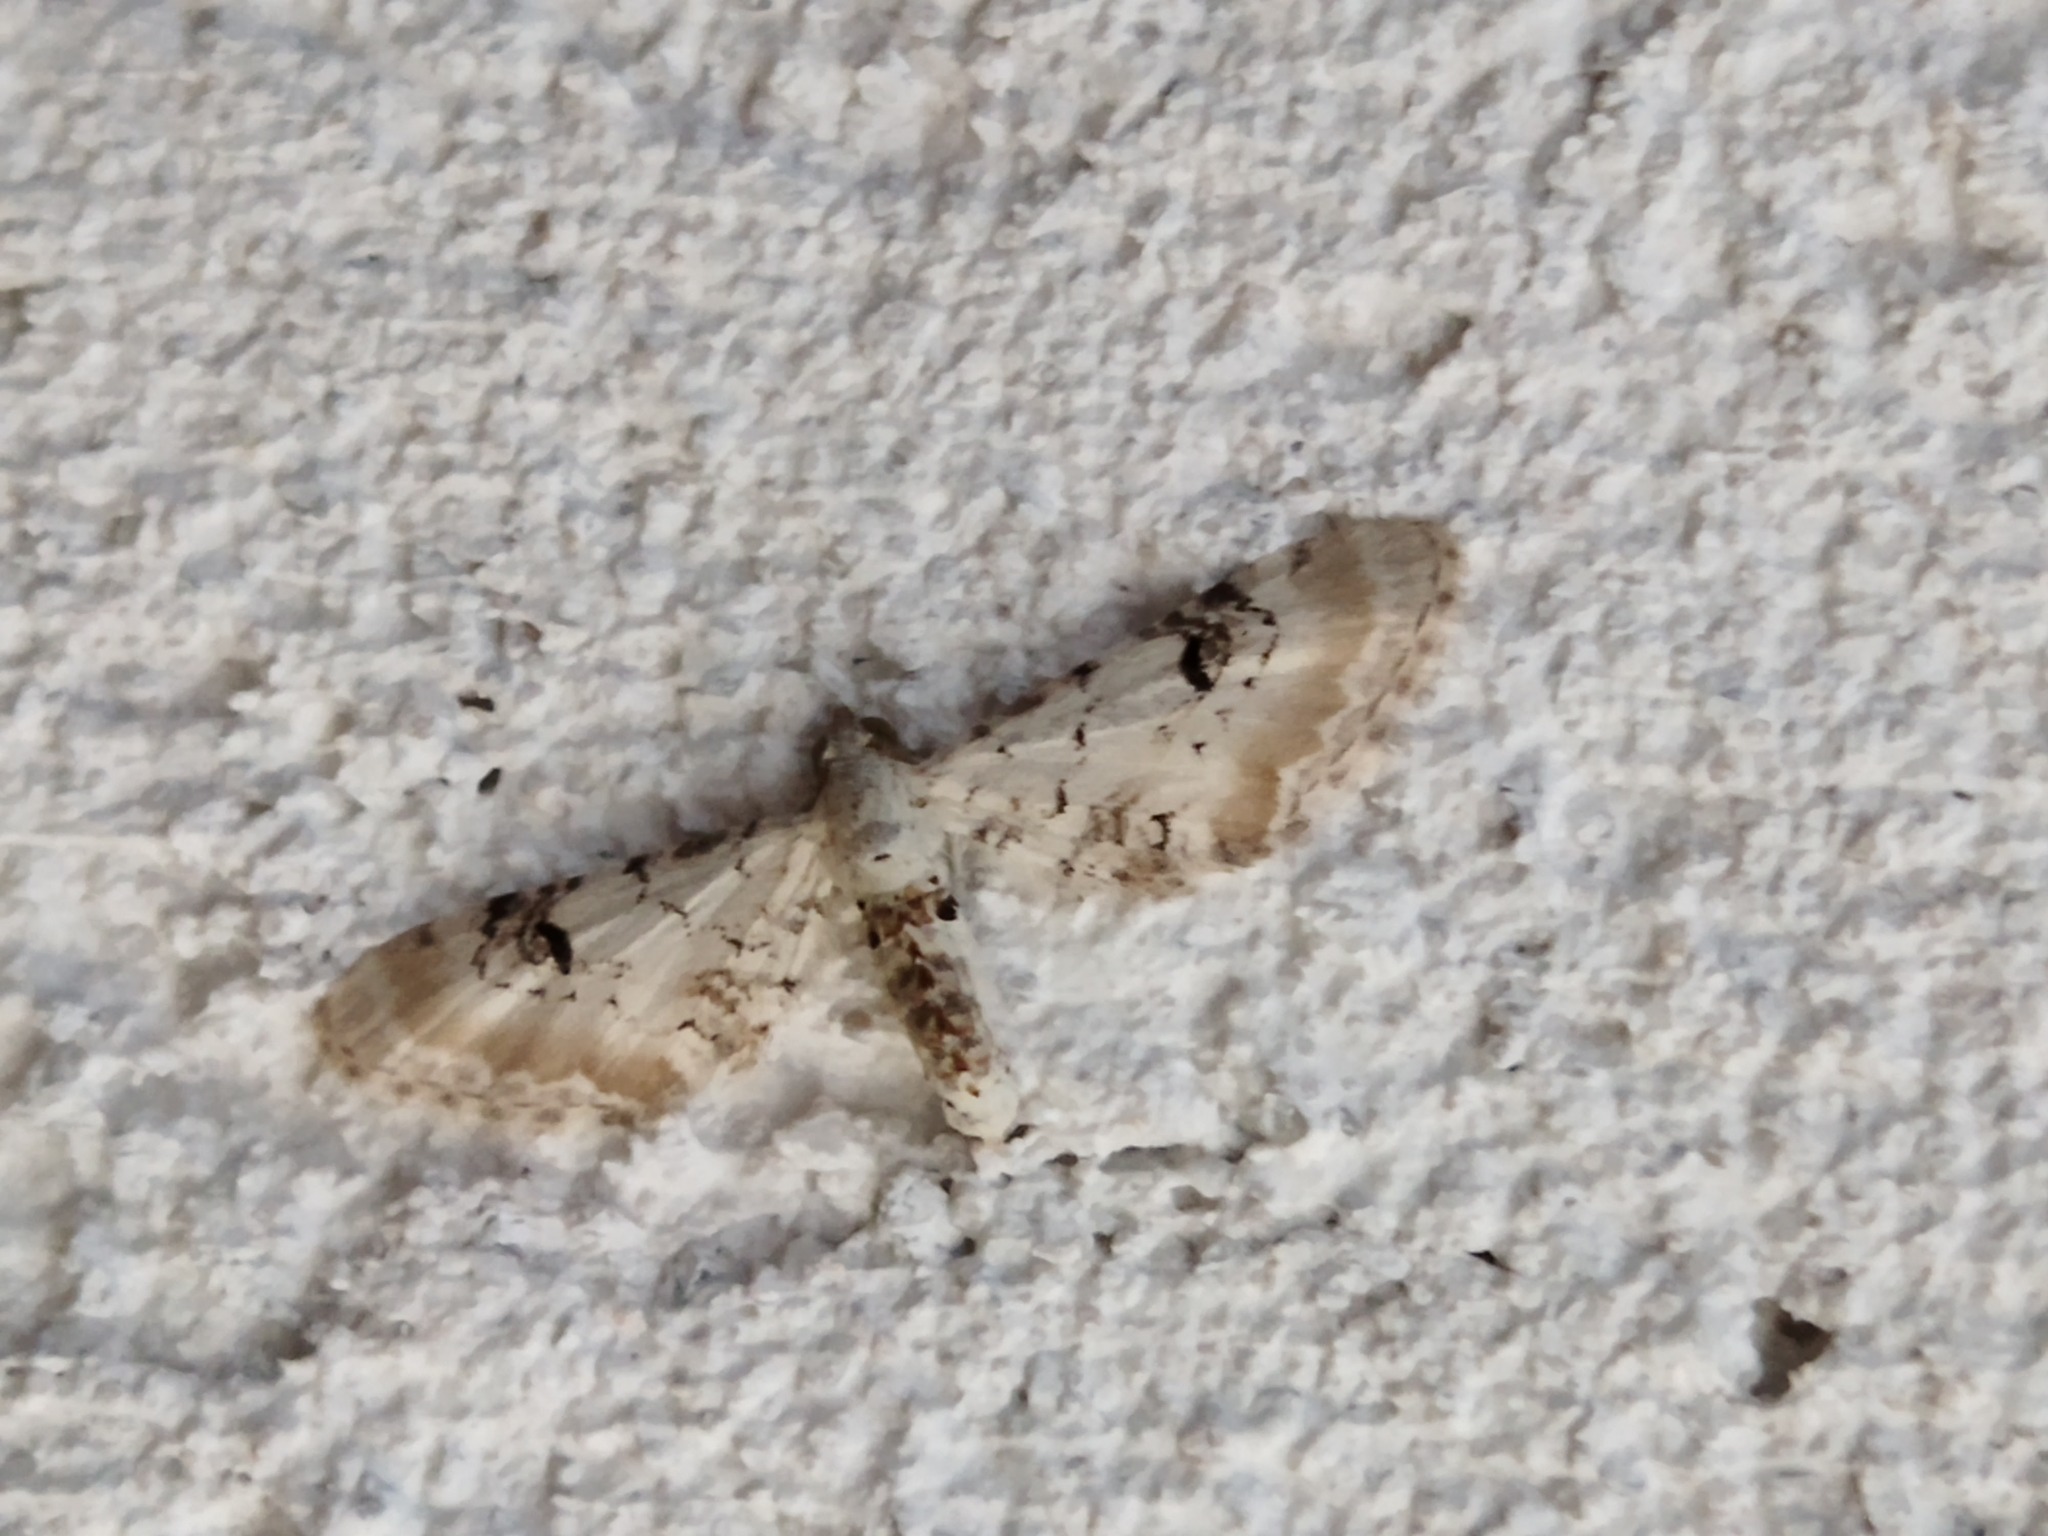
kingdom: Animalia
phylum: Arthropoda
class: Insecta
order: Lepidoptera
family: Geometridae
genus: Eupithecia
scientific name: Eupithecia centaureata
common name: Lime-speck pug
